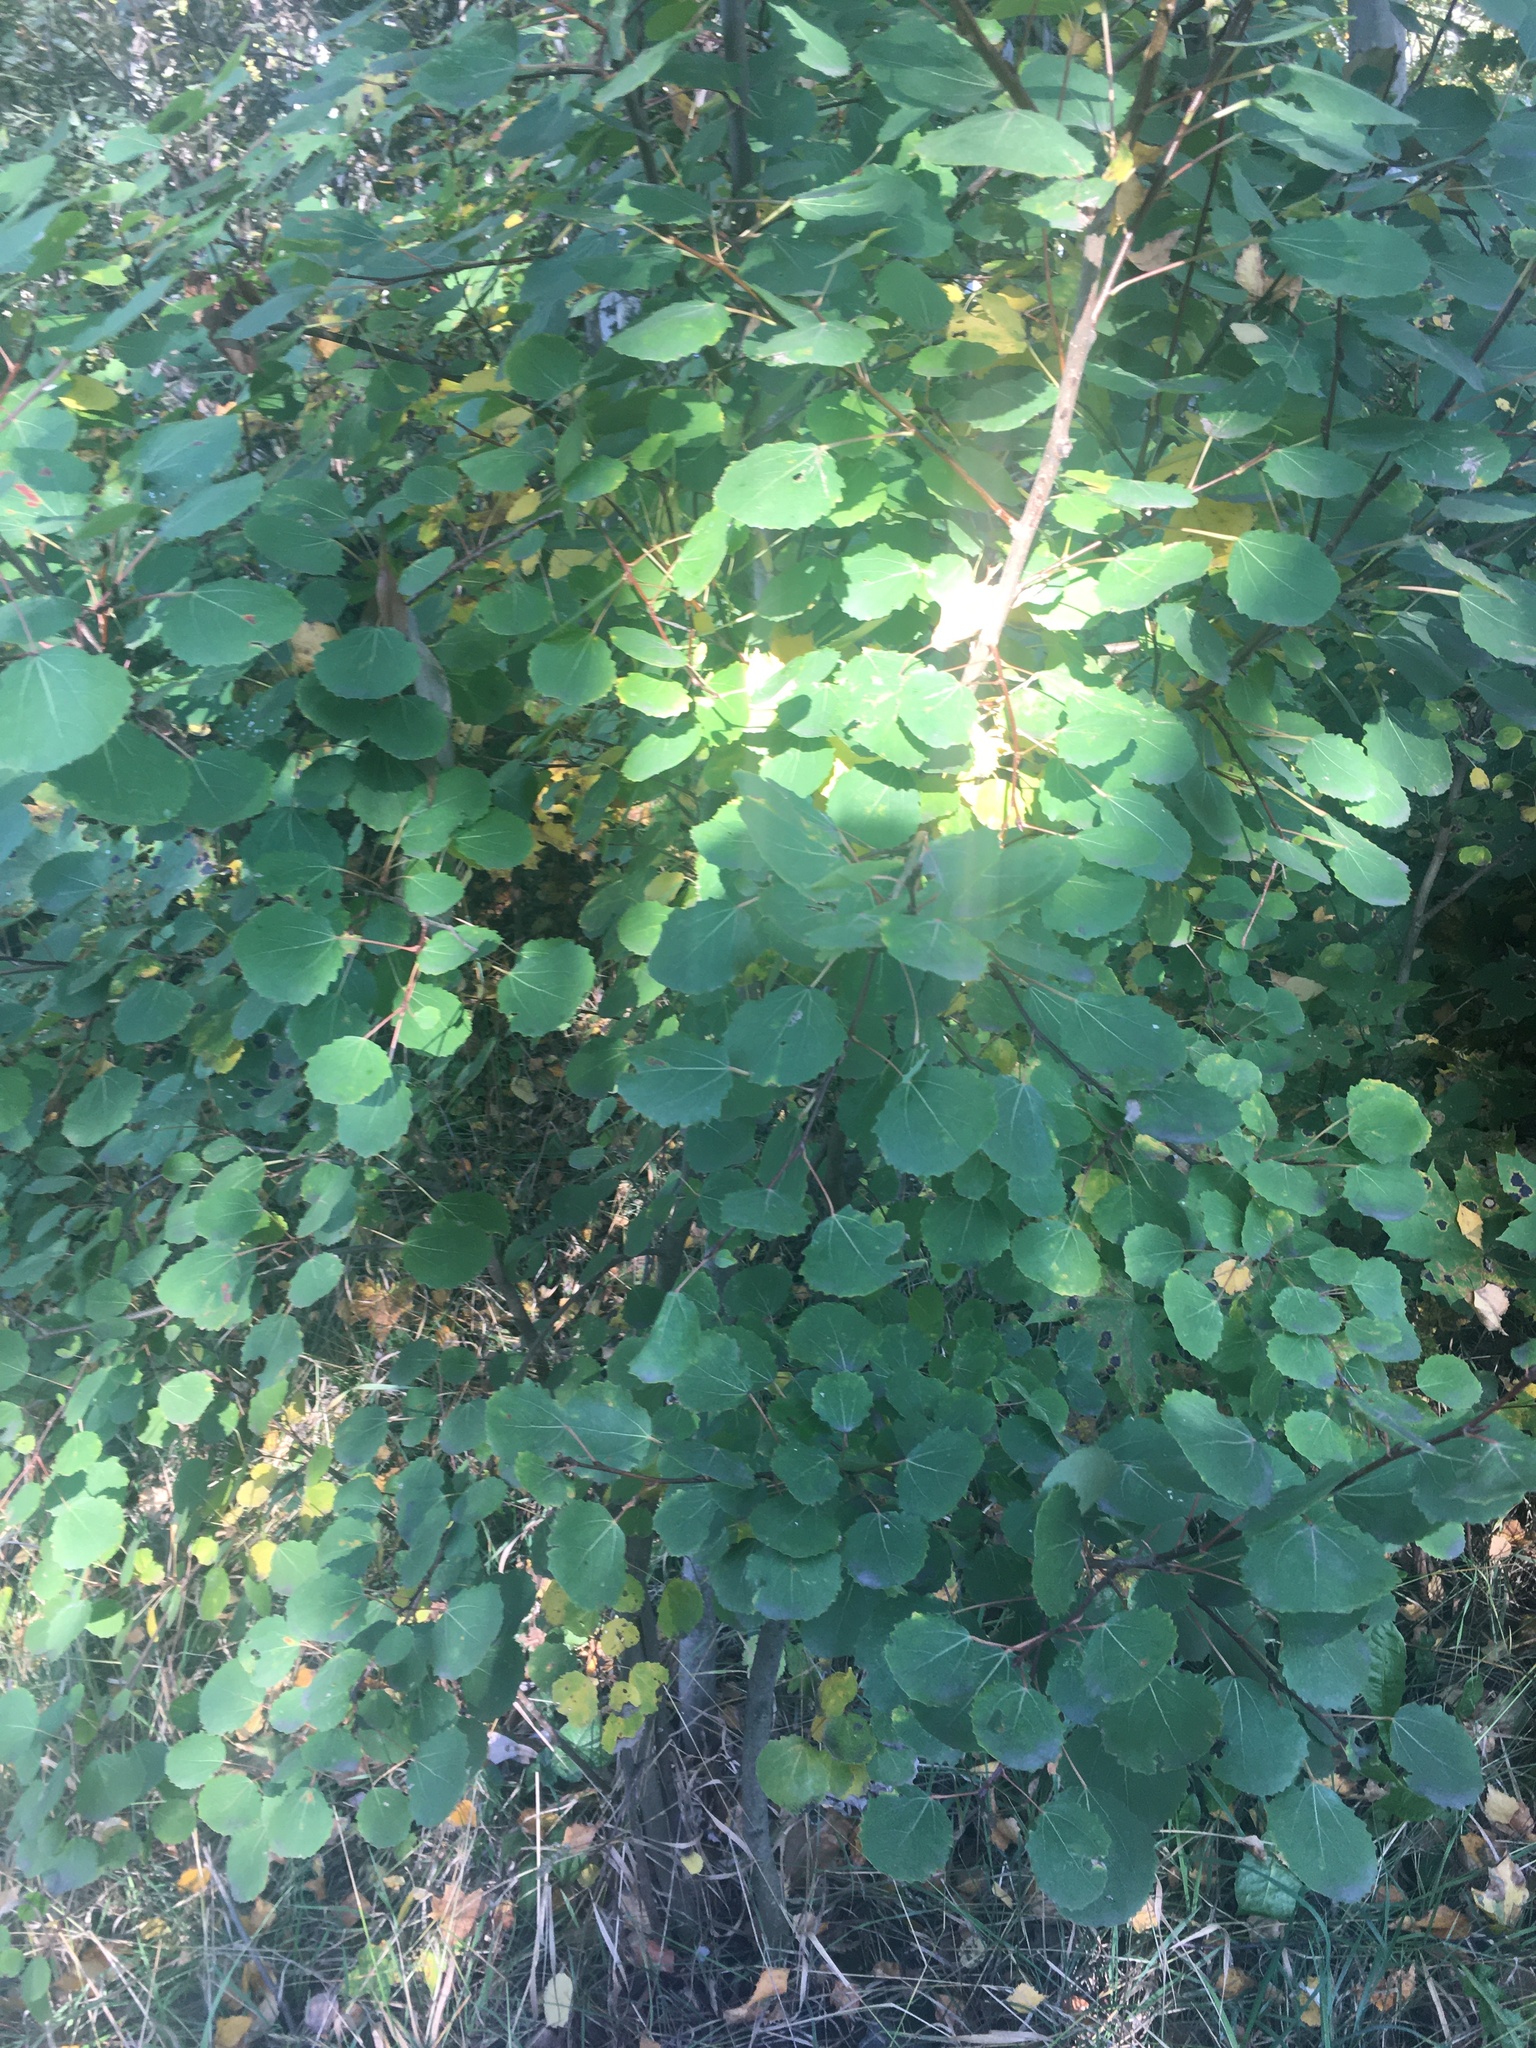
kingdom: Plantae
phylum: Tracheophyta
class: Magnoliopsida
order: Malpighiales
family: Salicaceae
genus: Populus
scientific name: Populus tremula
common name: European aspen
